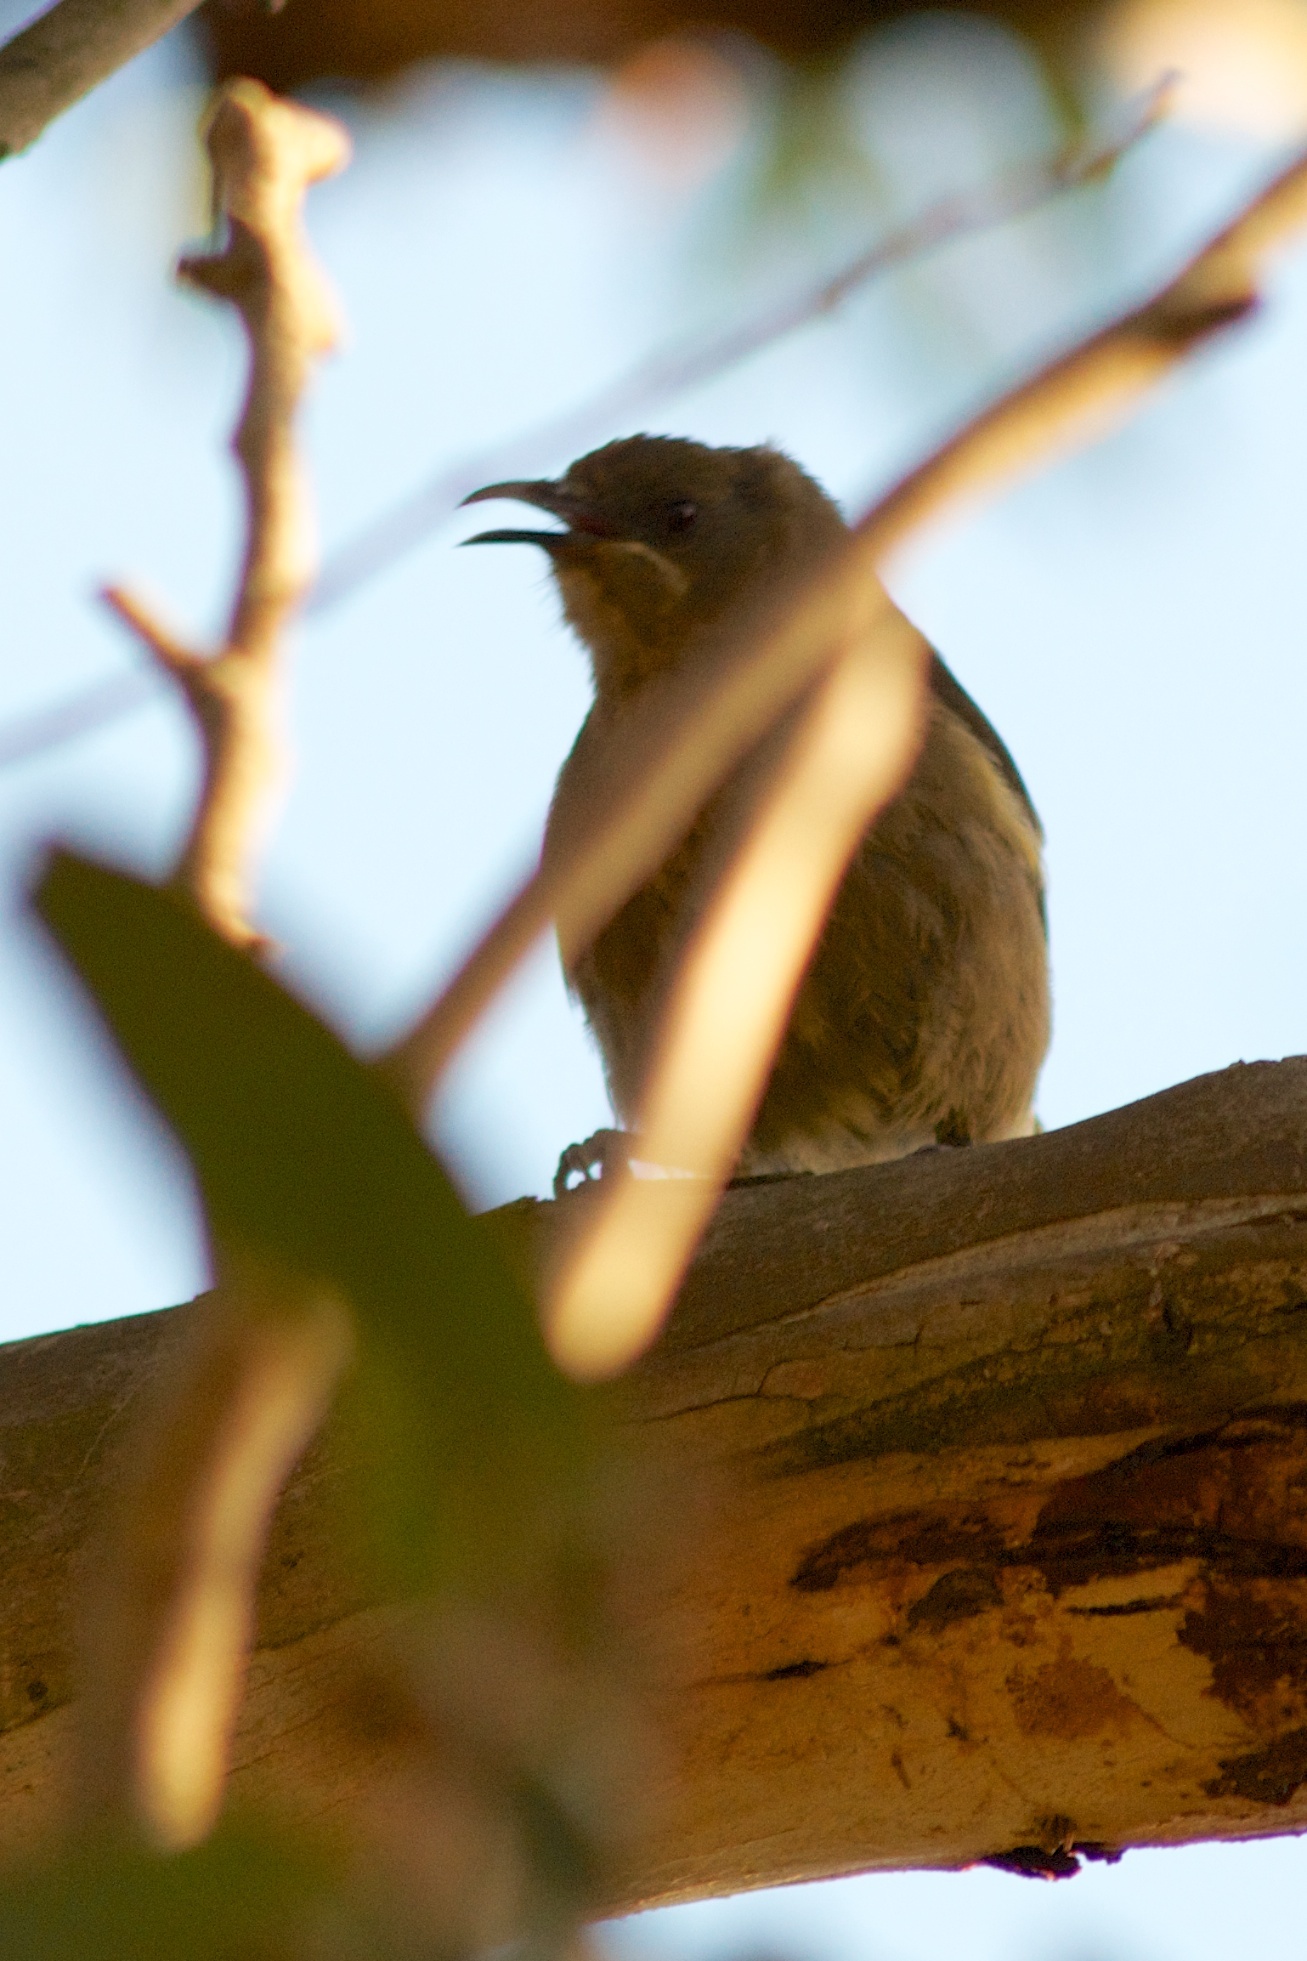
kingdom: Animalia
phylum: Chordata
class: Aves
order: Passeriformes
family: Meliphagidae
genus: Anthornis
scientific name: Anthornis melanura
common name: New zealand bellbird
